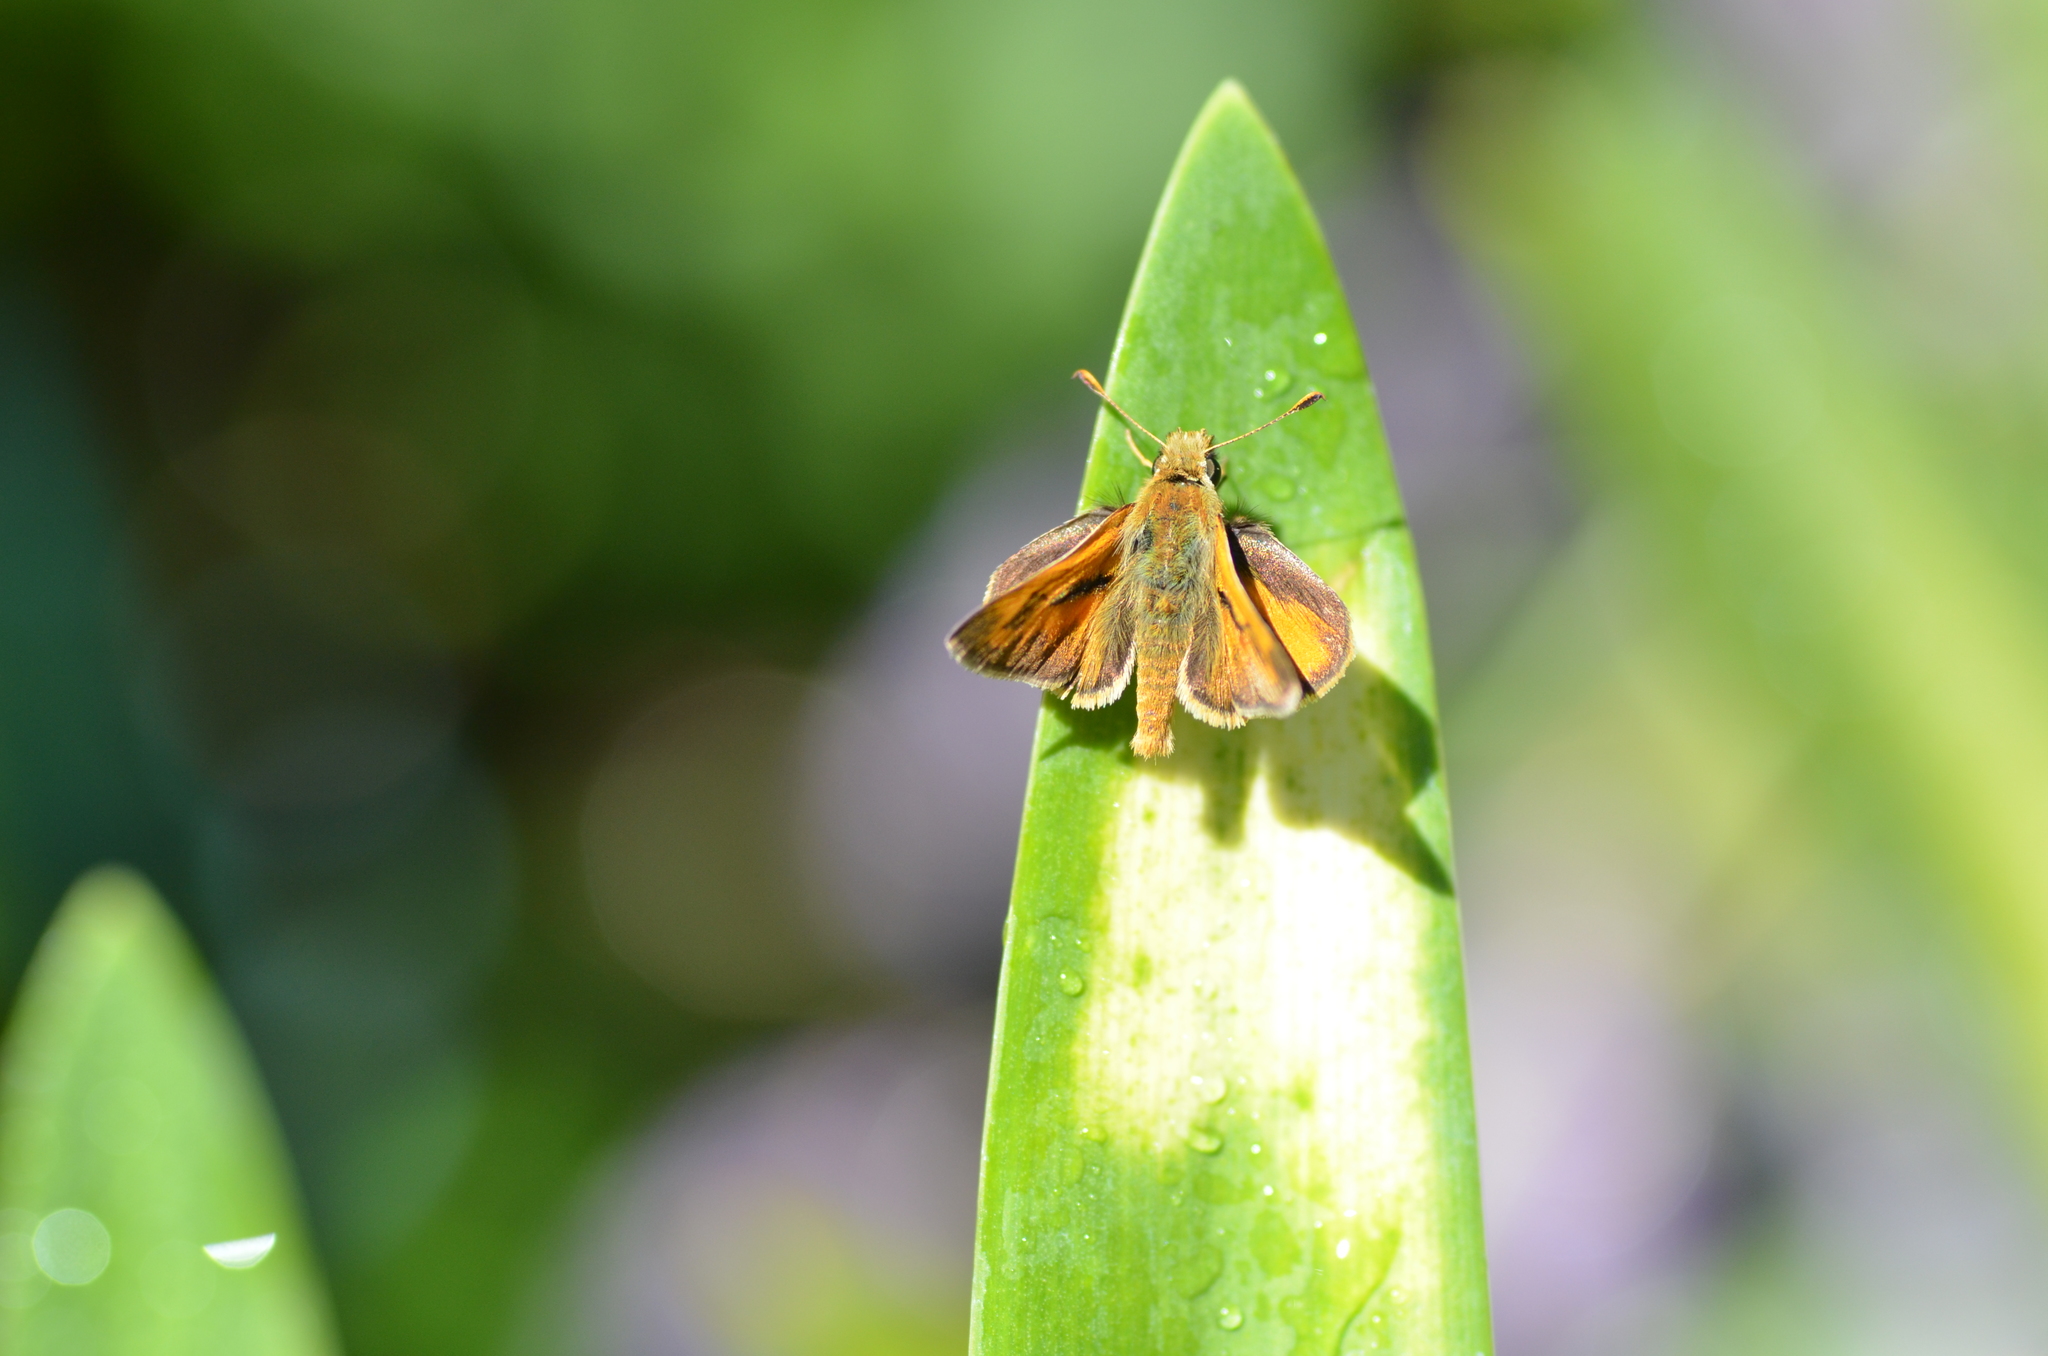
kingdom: Animalia
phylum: Arthropoda
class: Insecta
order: Lepidoptera
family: Hesperiidae
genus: Ochlodes
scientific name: Ochlodes sylvanoides
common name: Woodland skipper
